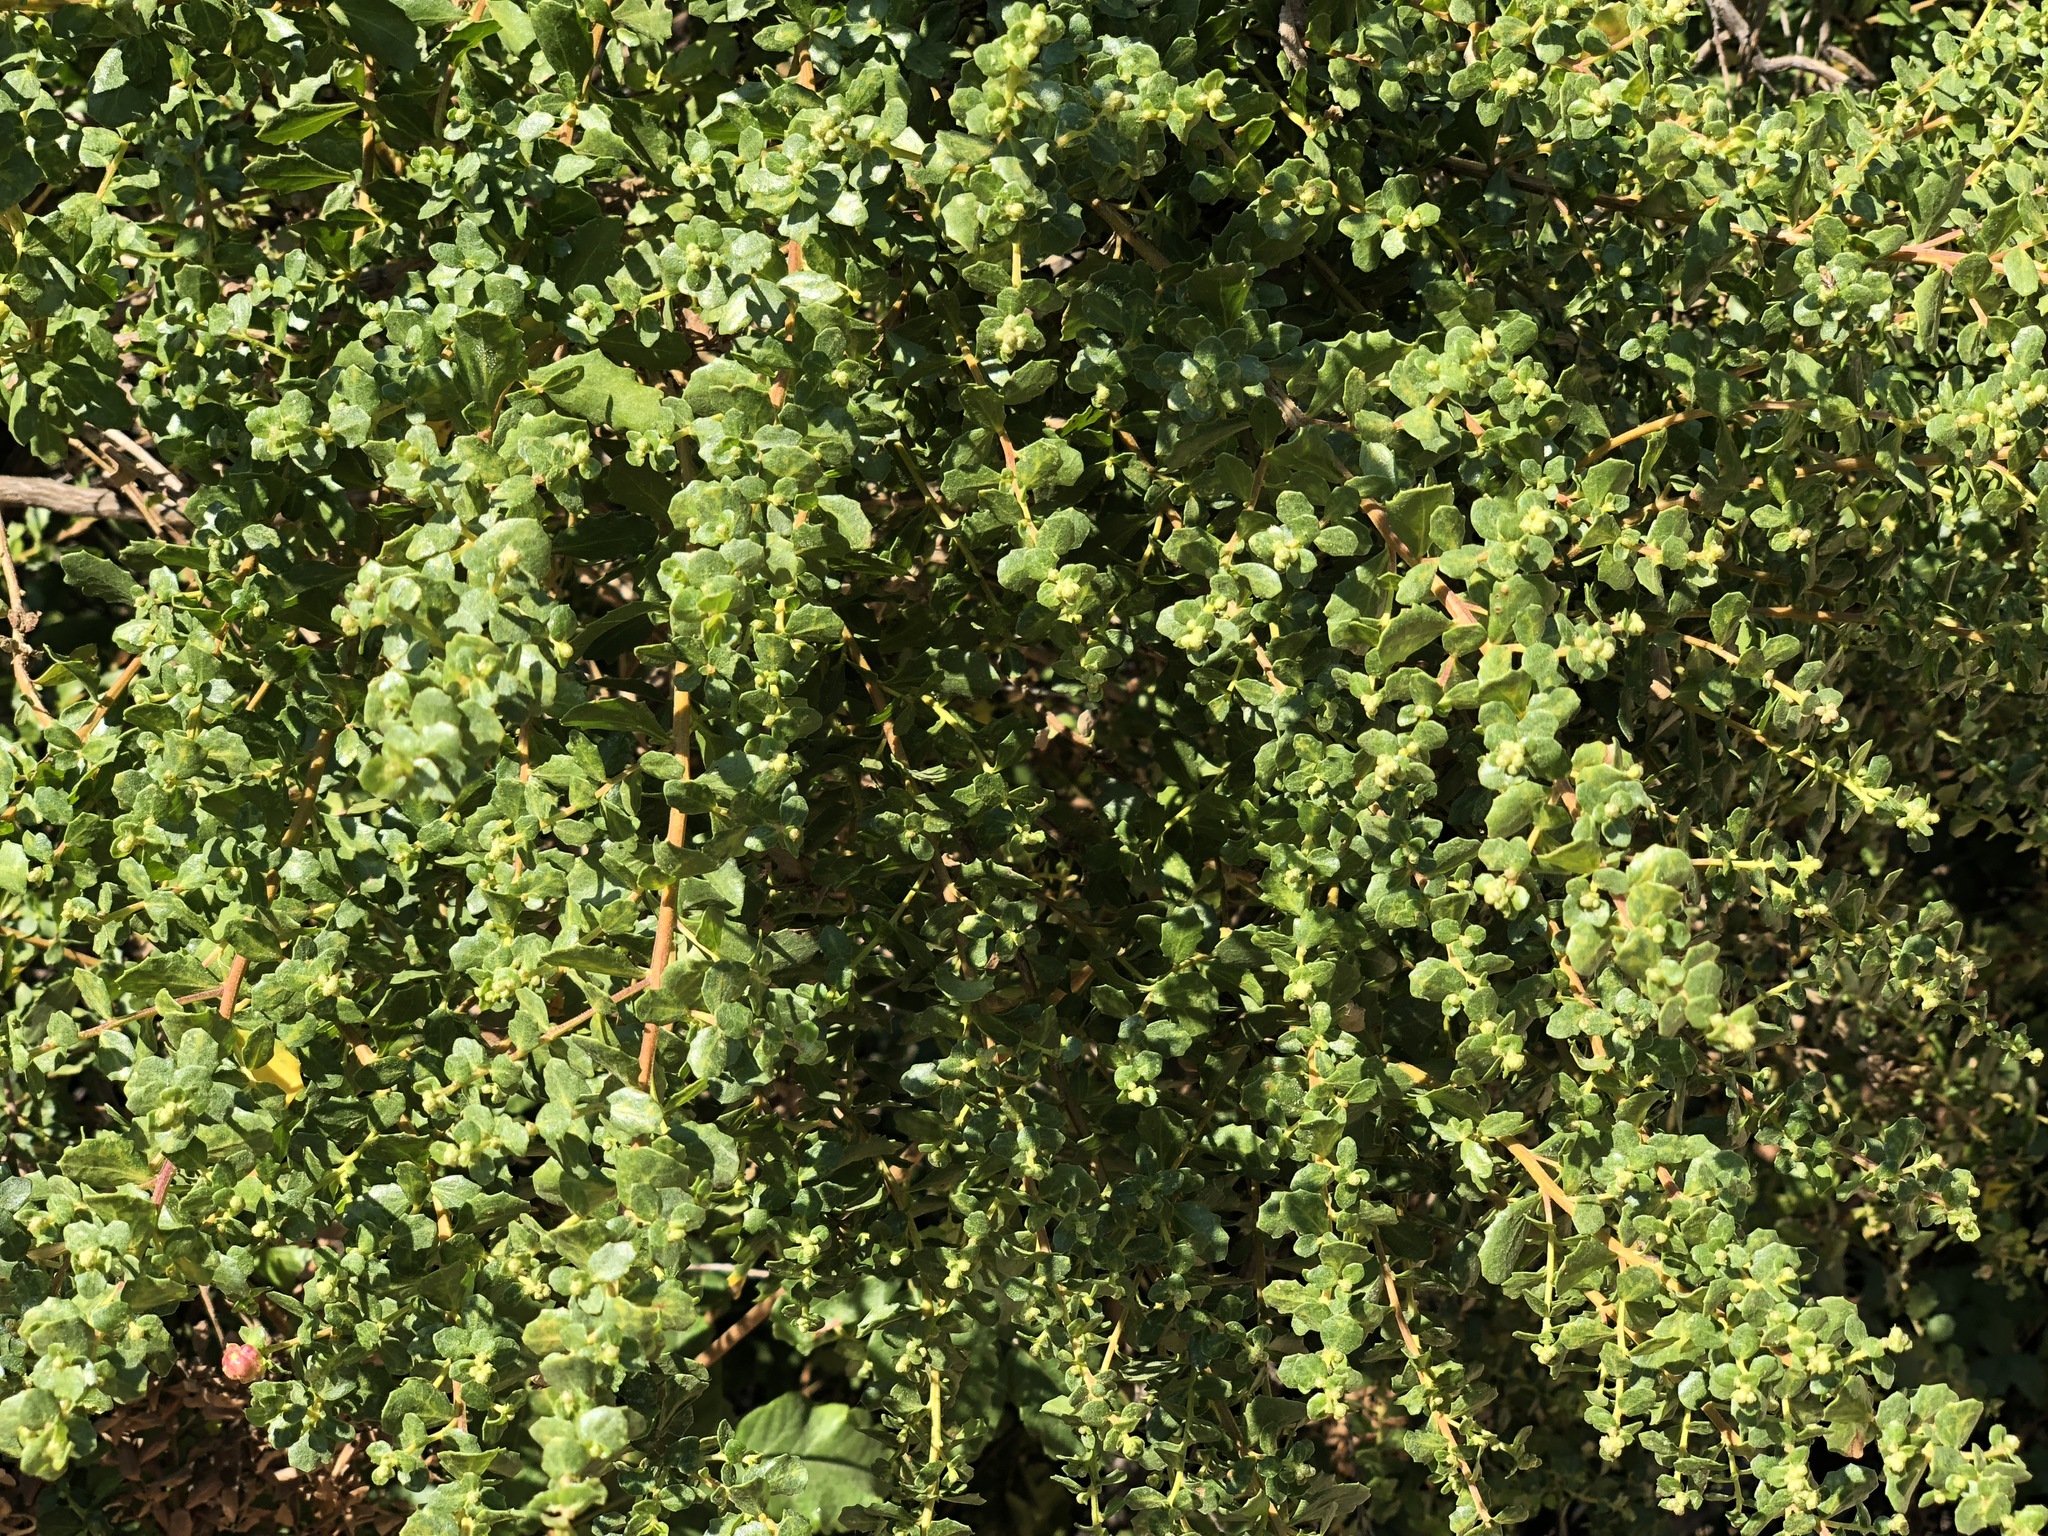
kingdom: Plantae
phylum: Tracheophyta
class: Magnoliopsida
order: Asterales
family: Asteraceae
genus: Baccharis
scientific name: Baccharis pilularis
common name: Coyotebrush
